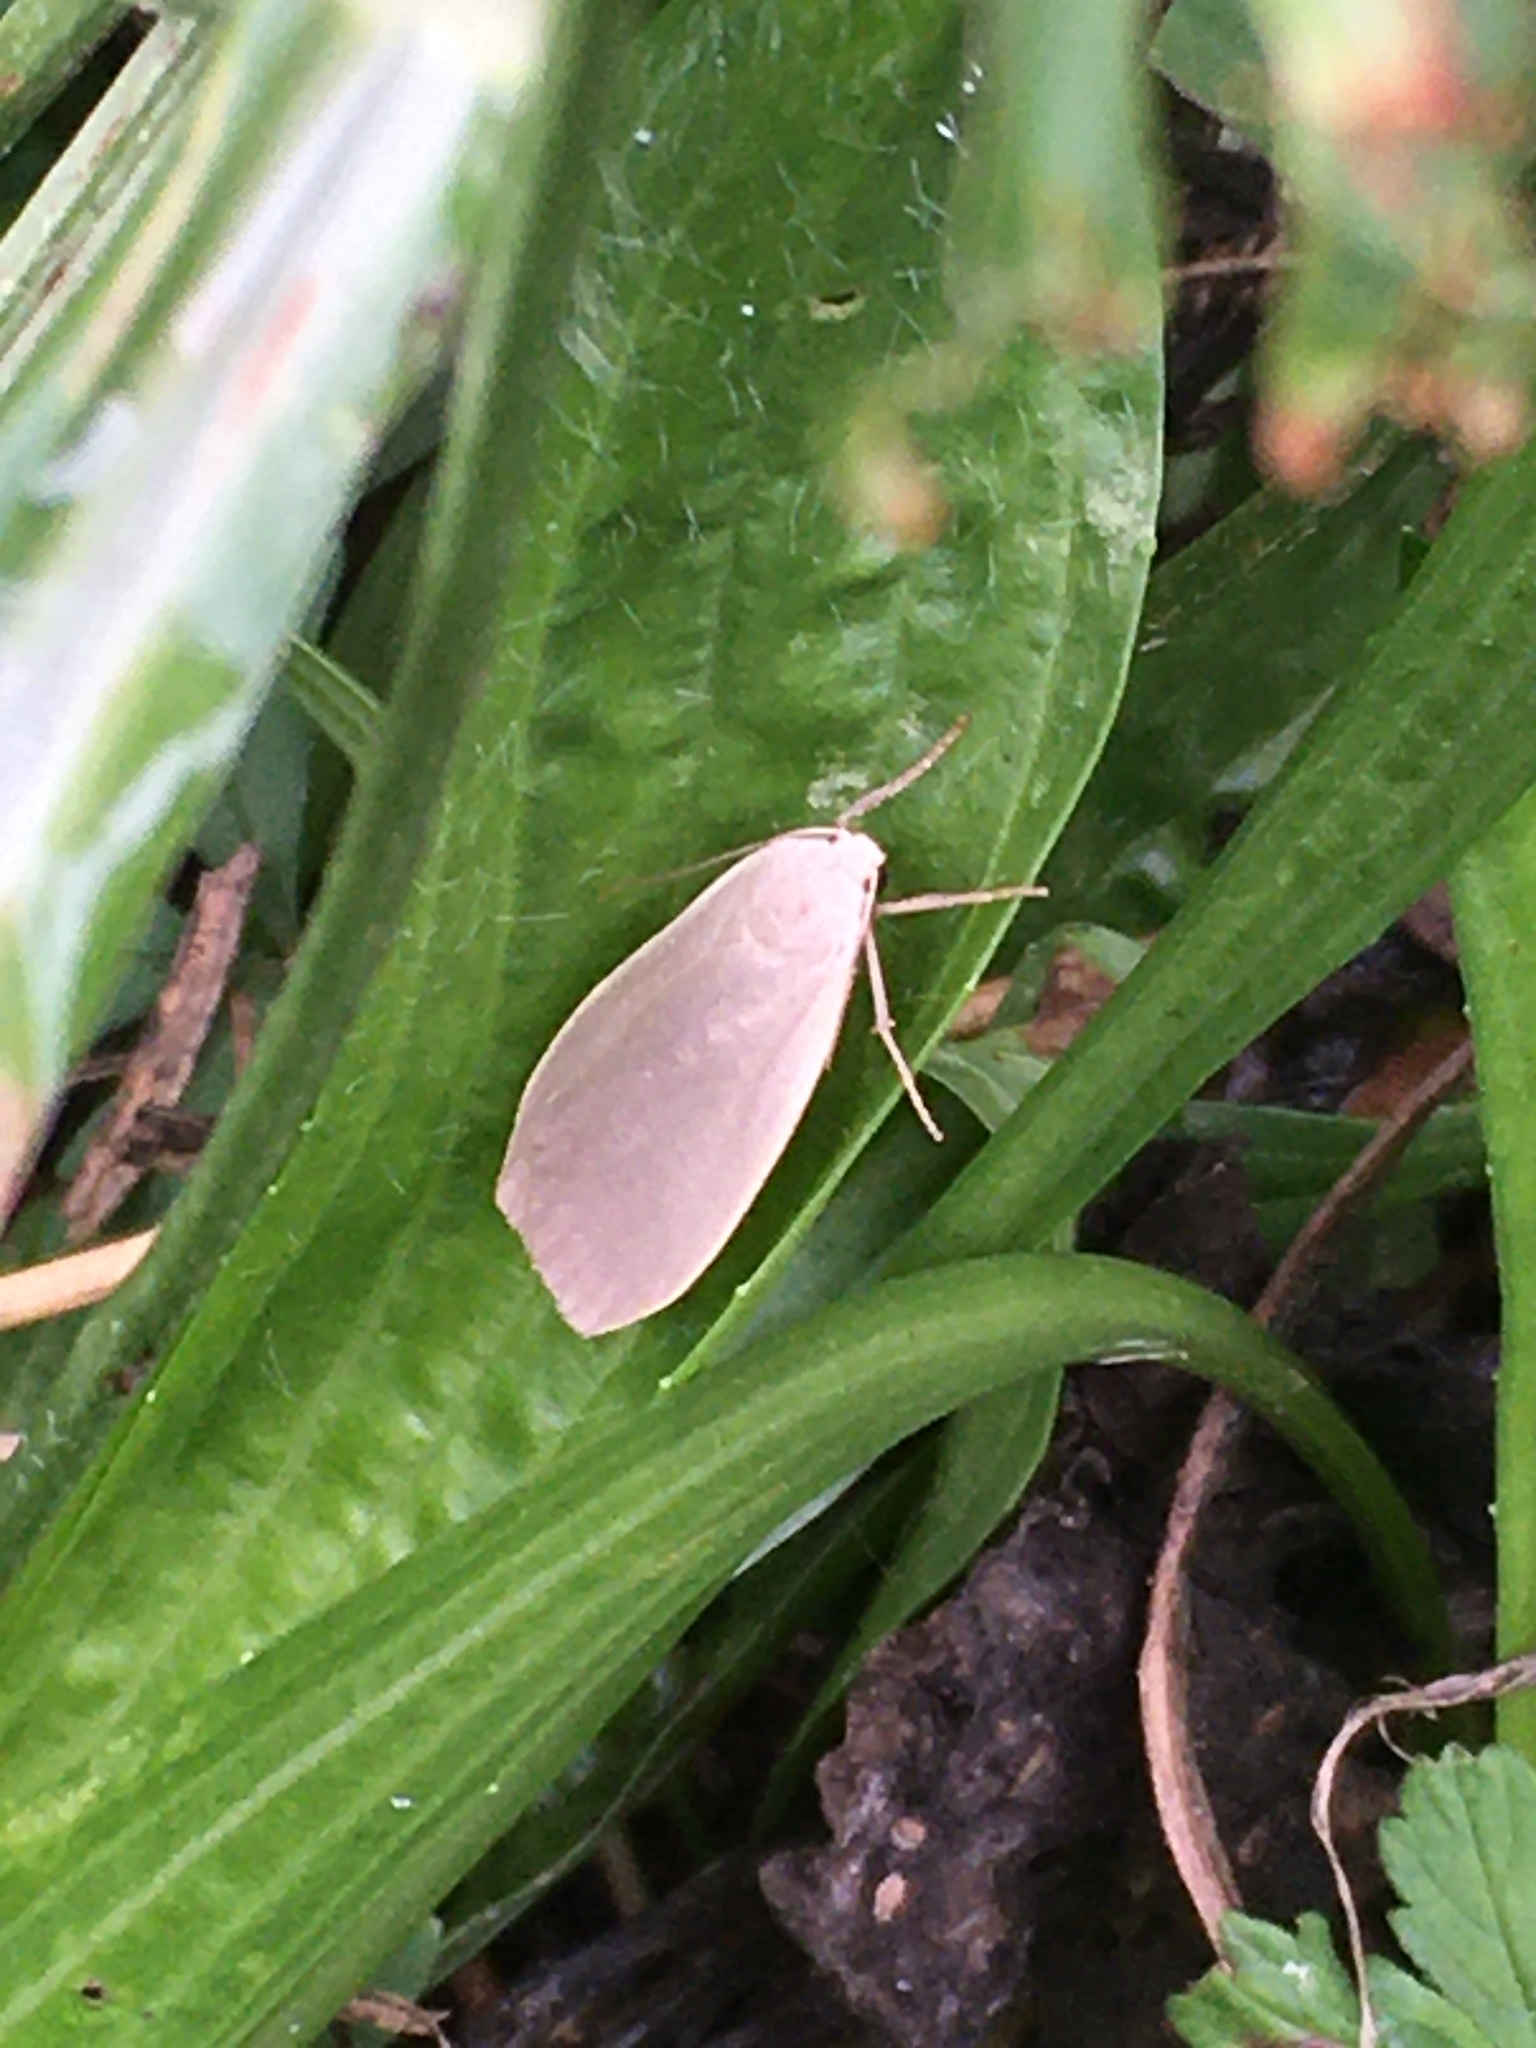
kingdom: Animalia
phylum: Arthropoda
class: Insecta
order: Lepidoptera
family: Erebidae
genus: Collita
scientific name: Collita griseola
